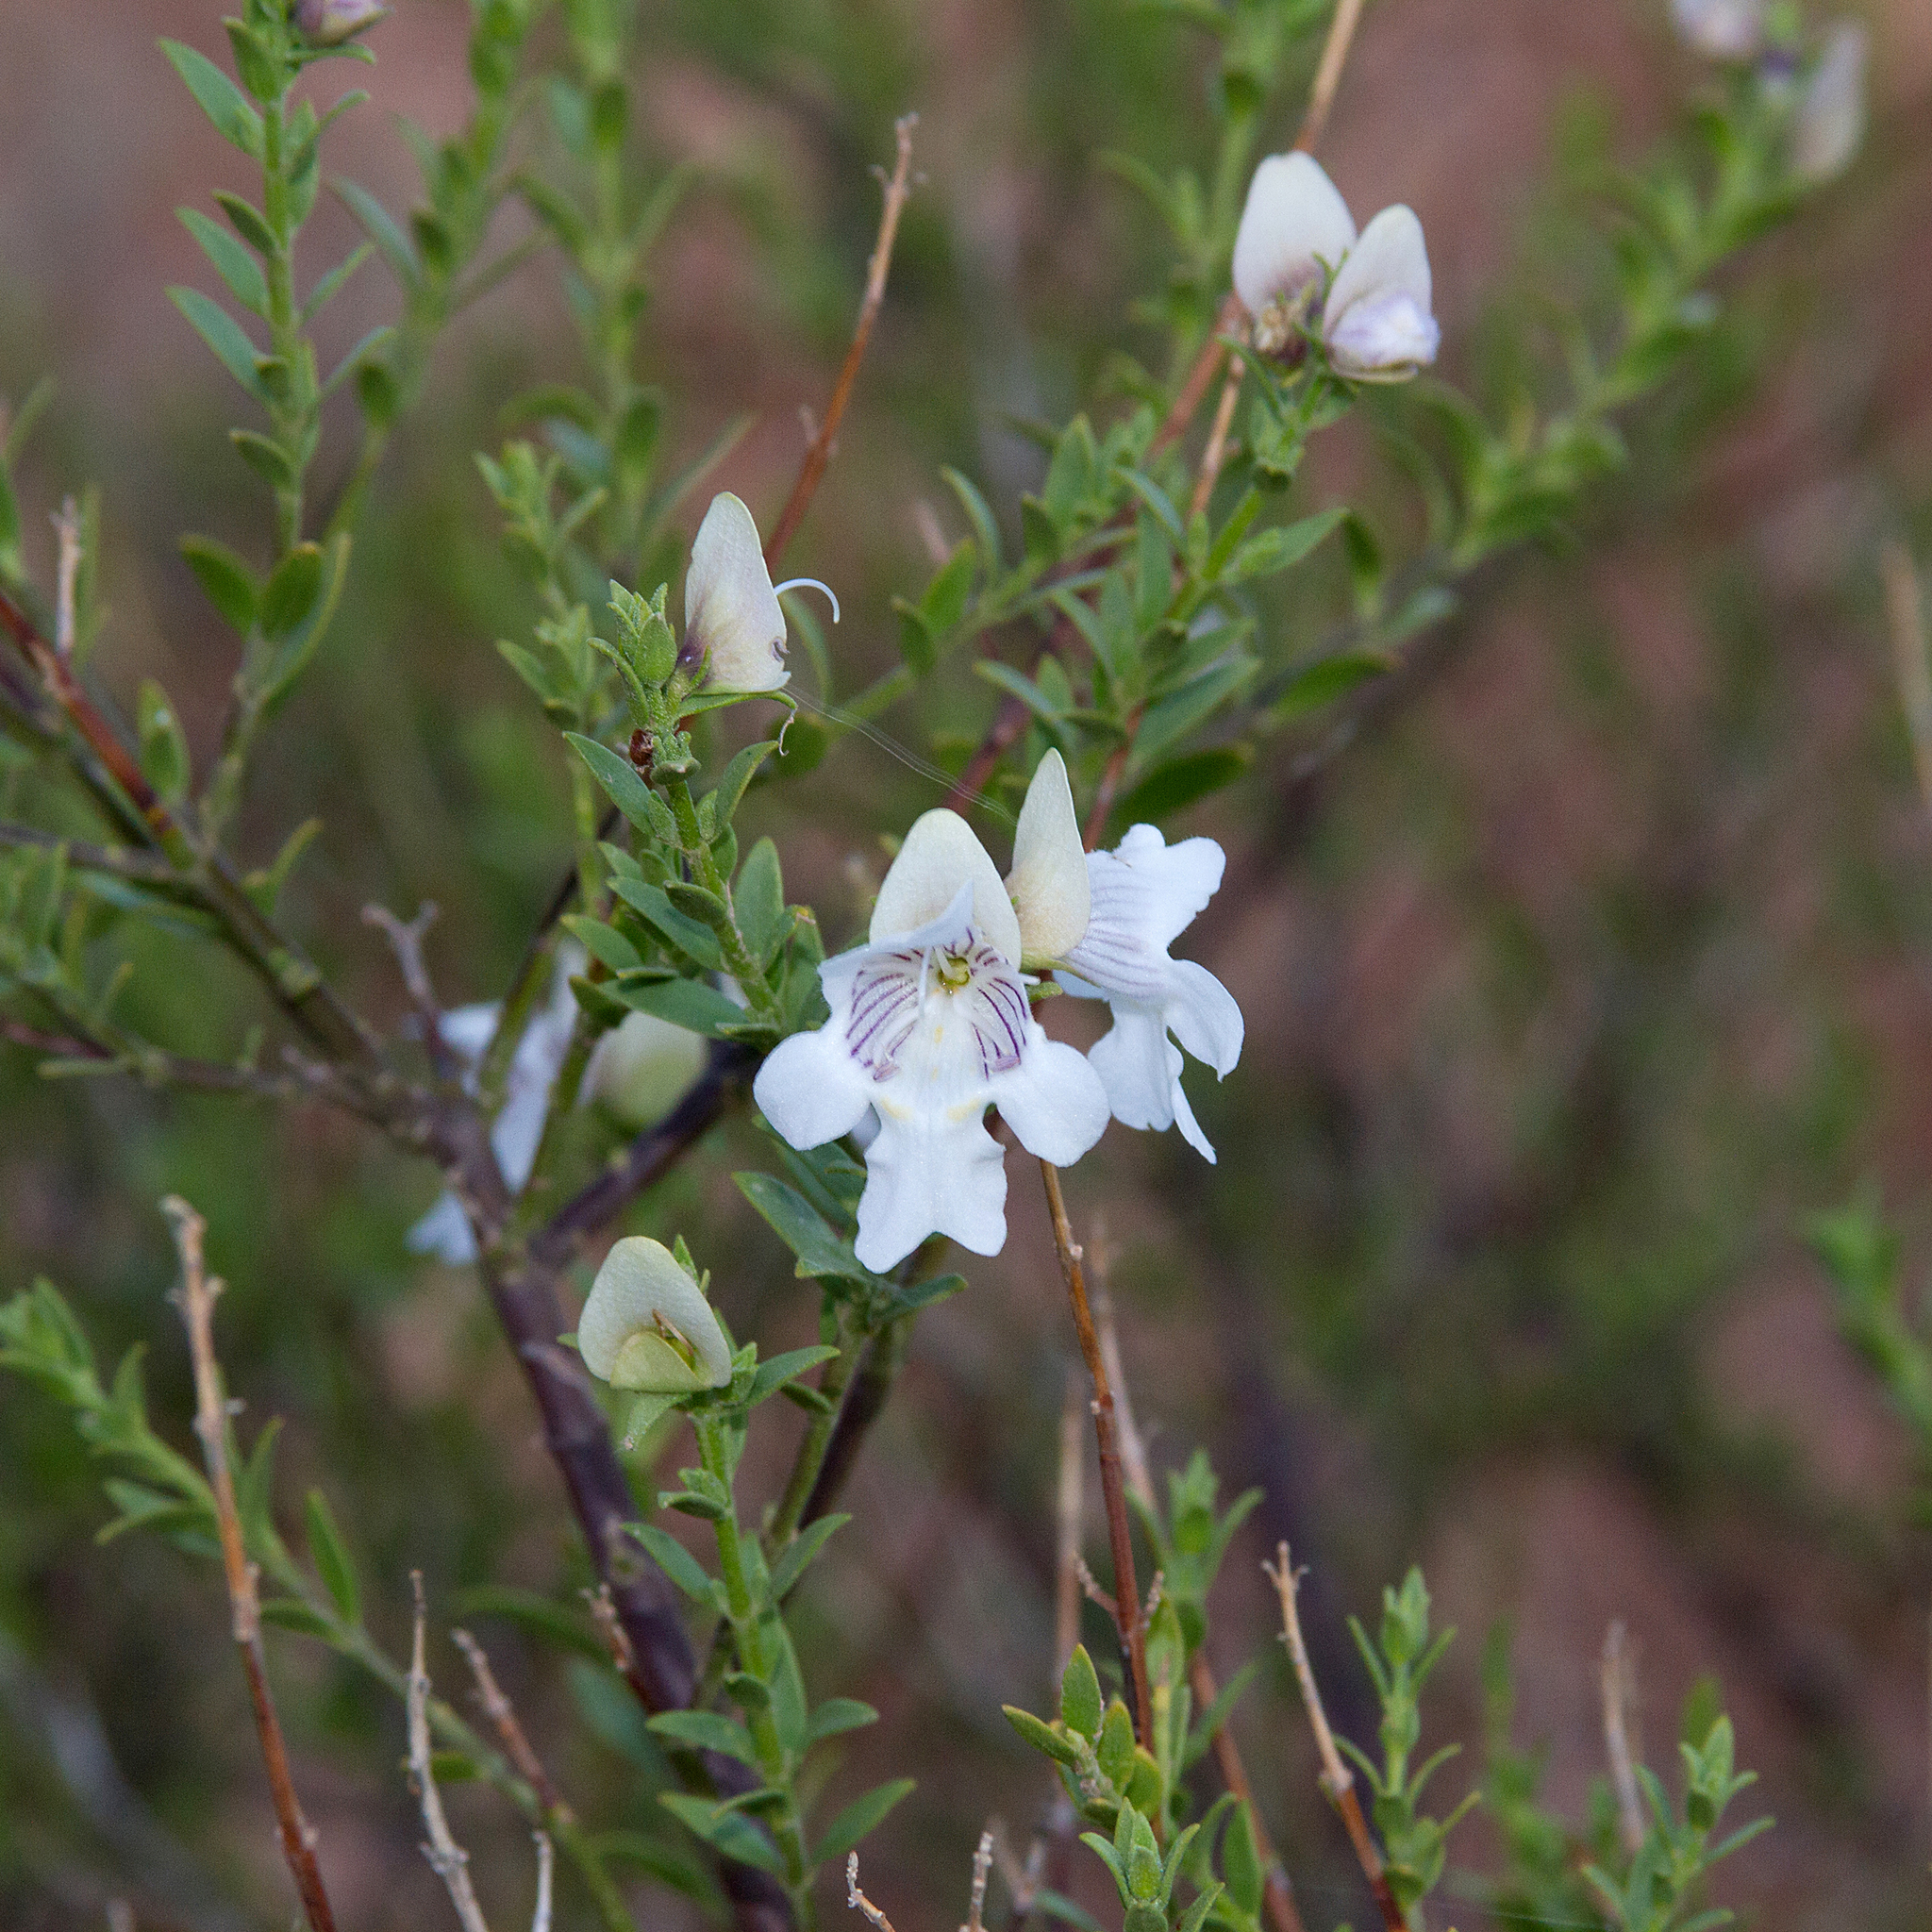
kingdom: Plantae
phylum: Tracheophyta
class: Magnoliopsida
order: Lamiales
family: Lamiaceae
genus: Prostanthera
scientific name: Prostanthera striatiflora
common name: Jockey's-cap
